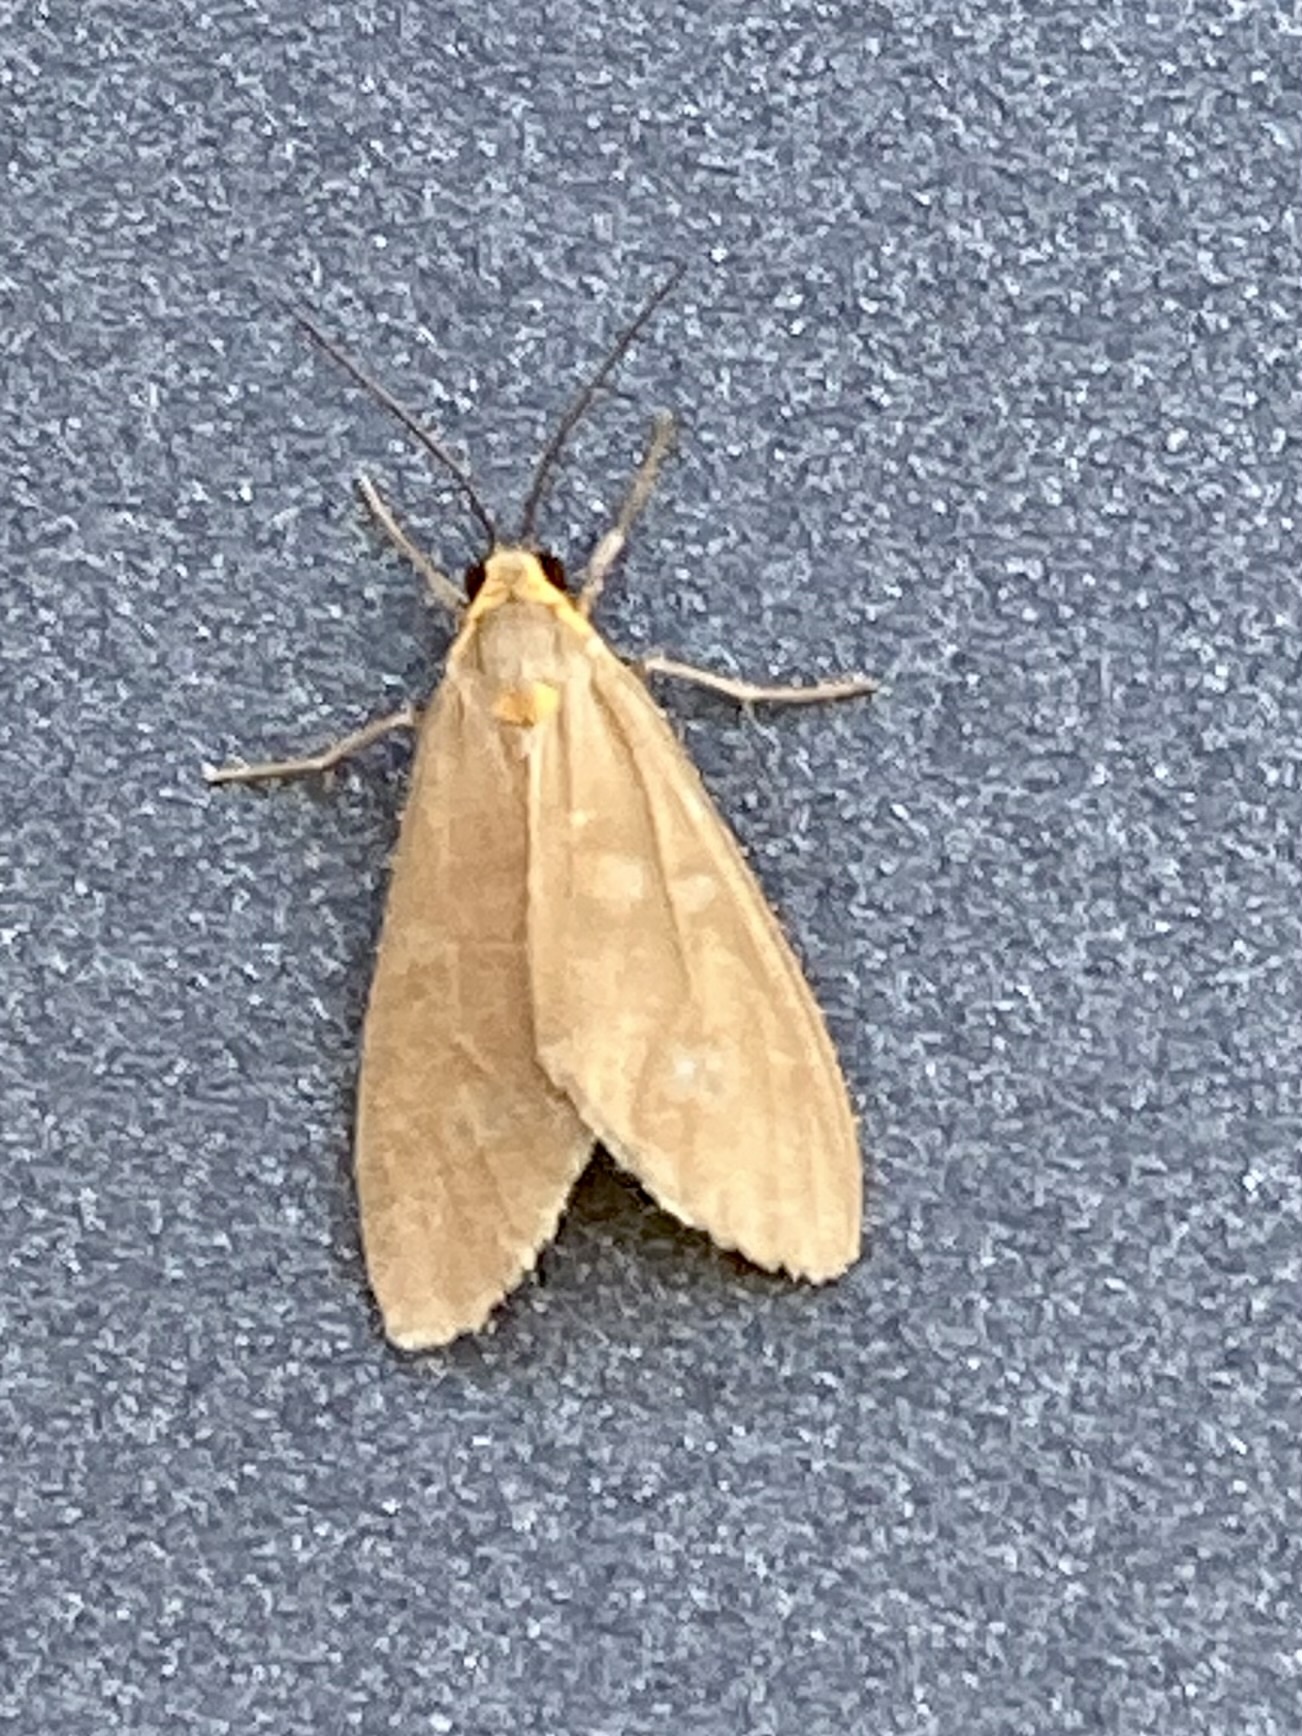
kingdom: Animalia
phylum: Arthropoda
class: Insecta
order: Lepidoptera
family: Erebidae
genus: Dysauxes
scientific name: Dysauxes punctata
